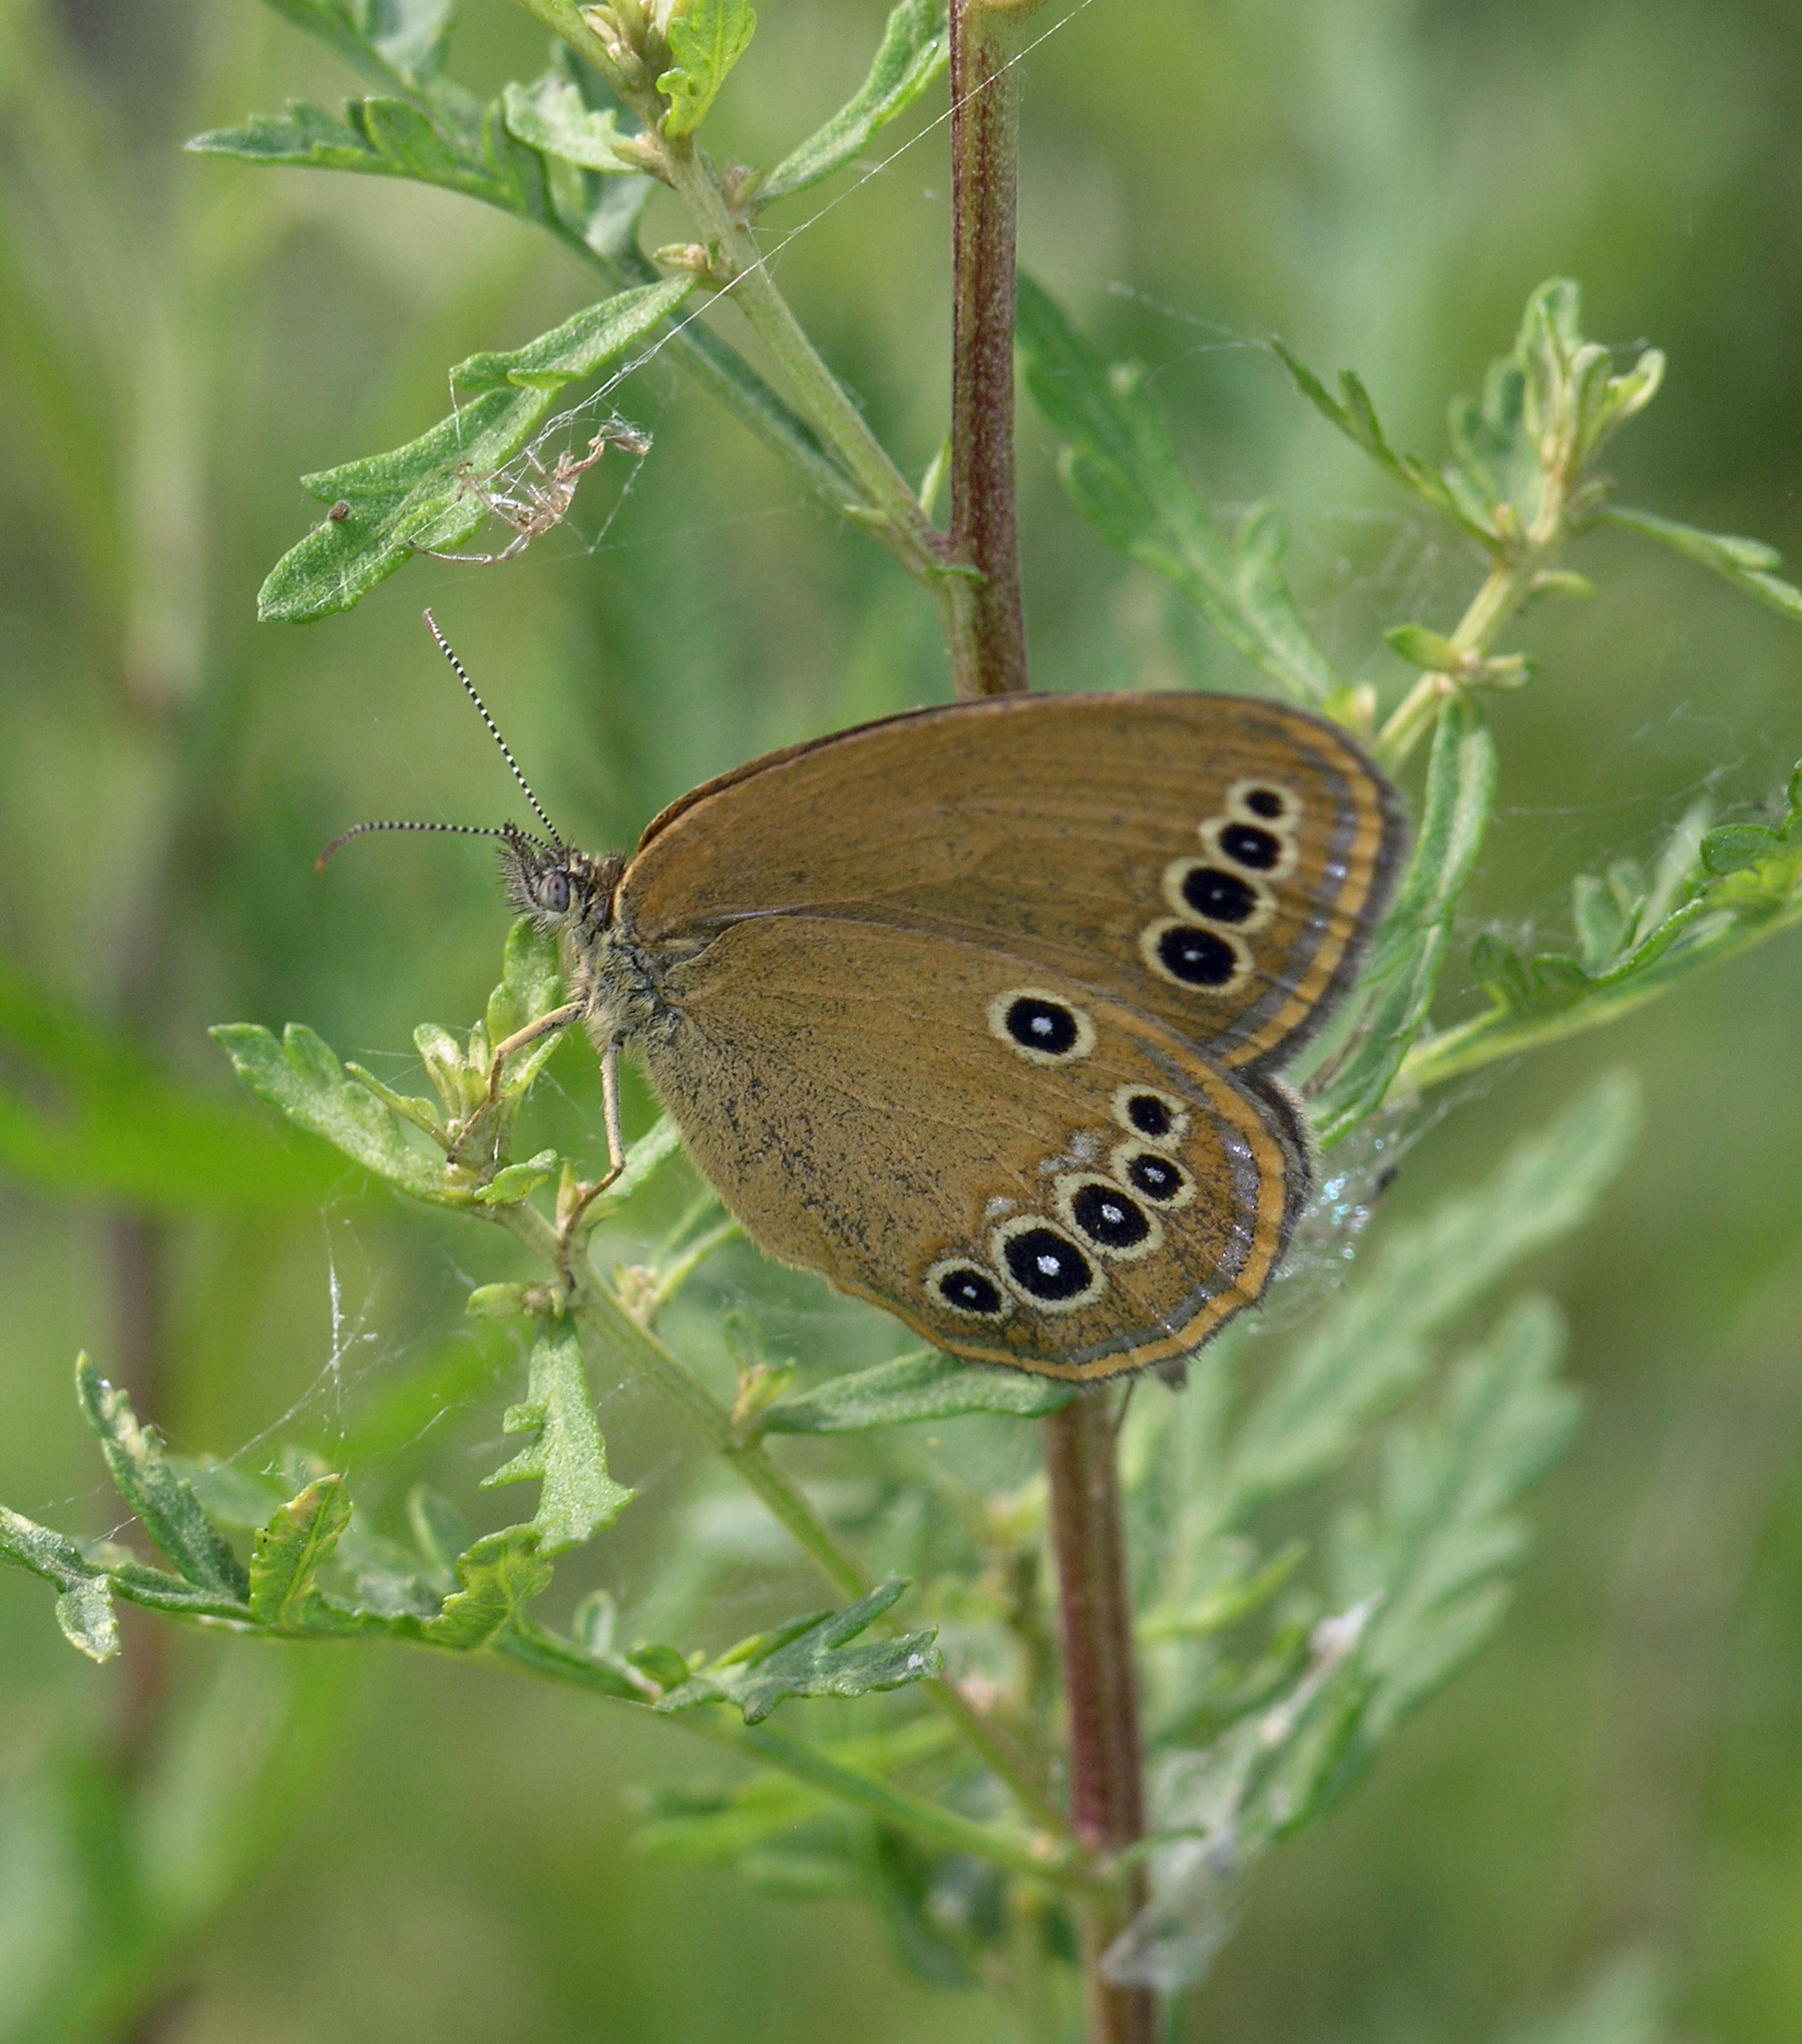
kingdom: Animalia
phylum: Arthropoda
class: Insecta
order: Lepidoptera
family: Nymphalidae
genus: Coenonympha
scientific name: Coenonympha oedippus
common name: False ringlet
